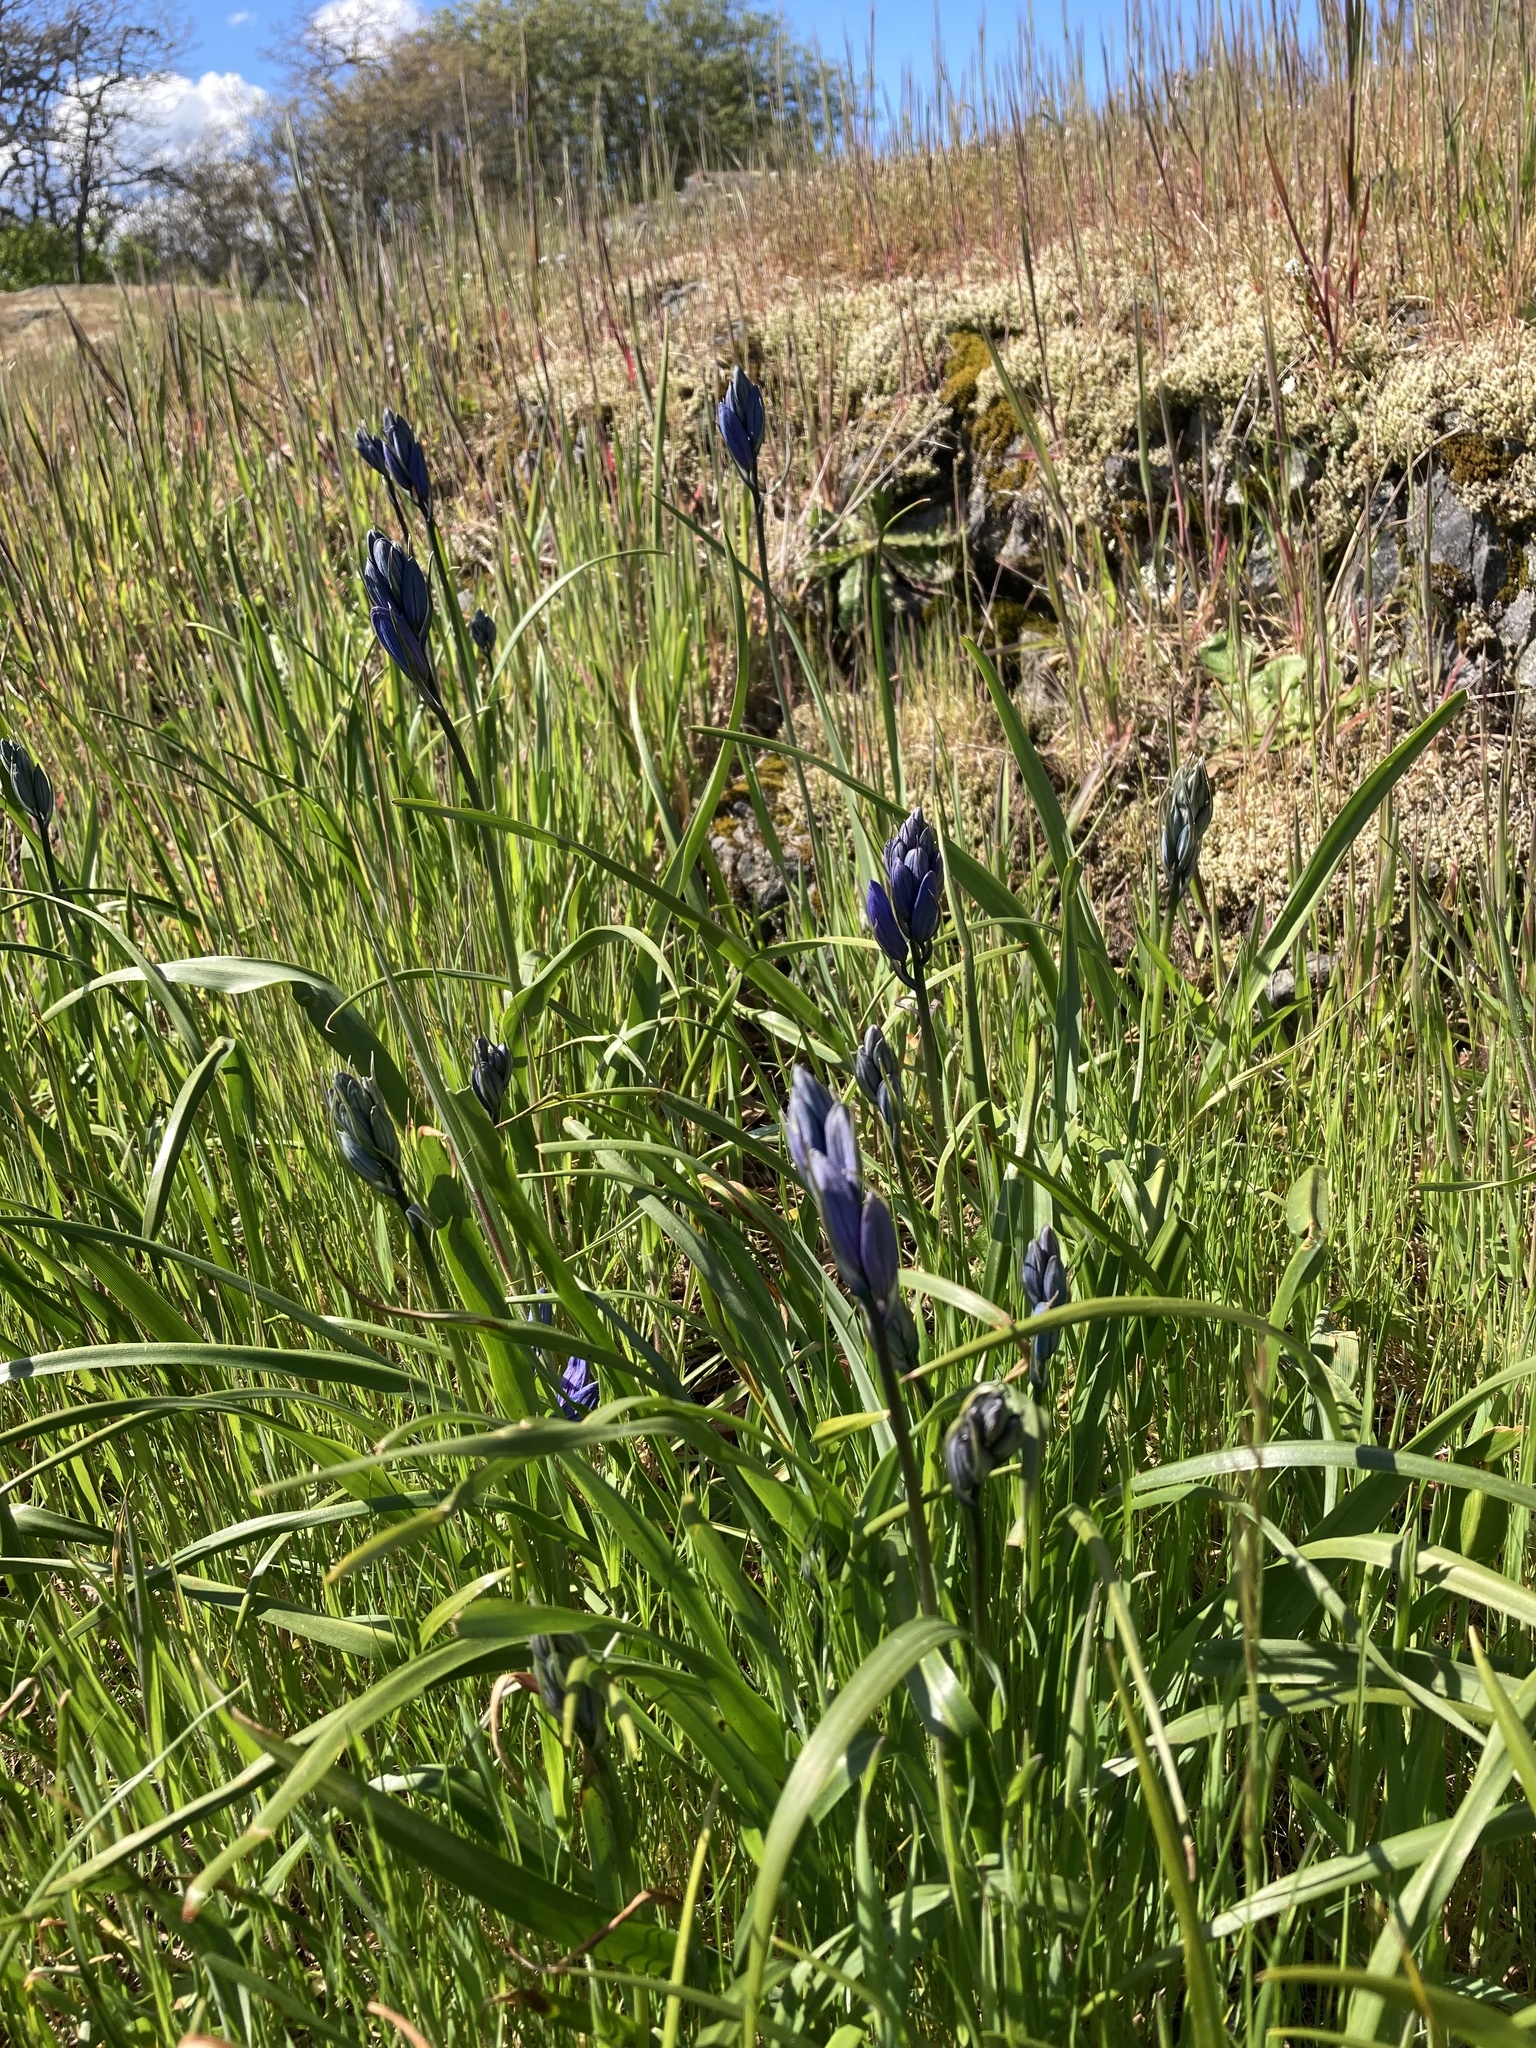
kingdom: Plantae
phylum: Tracheophyta
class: Liliopsida
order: Asparagales
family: Asparagaceae
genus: Camassia
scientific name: Camassia quamash
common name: Common camas
